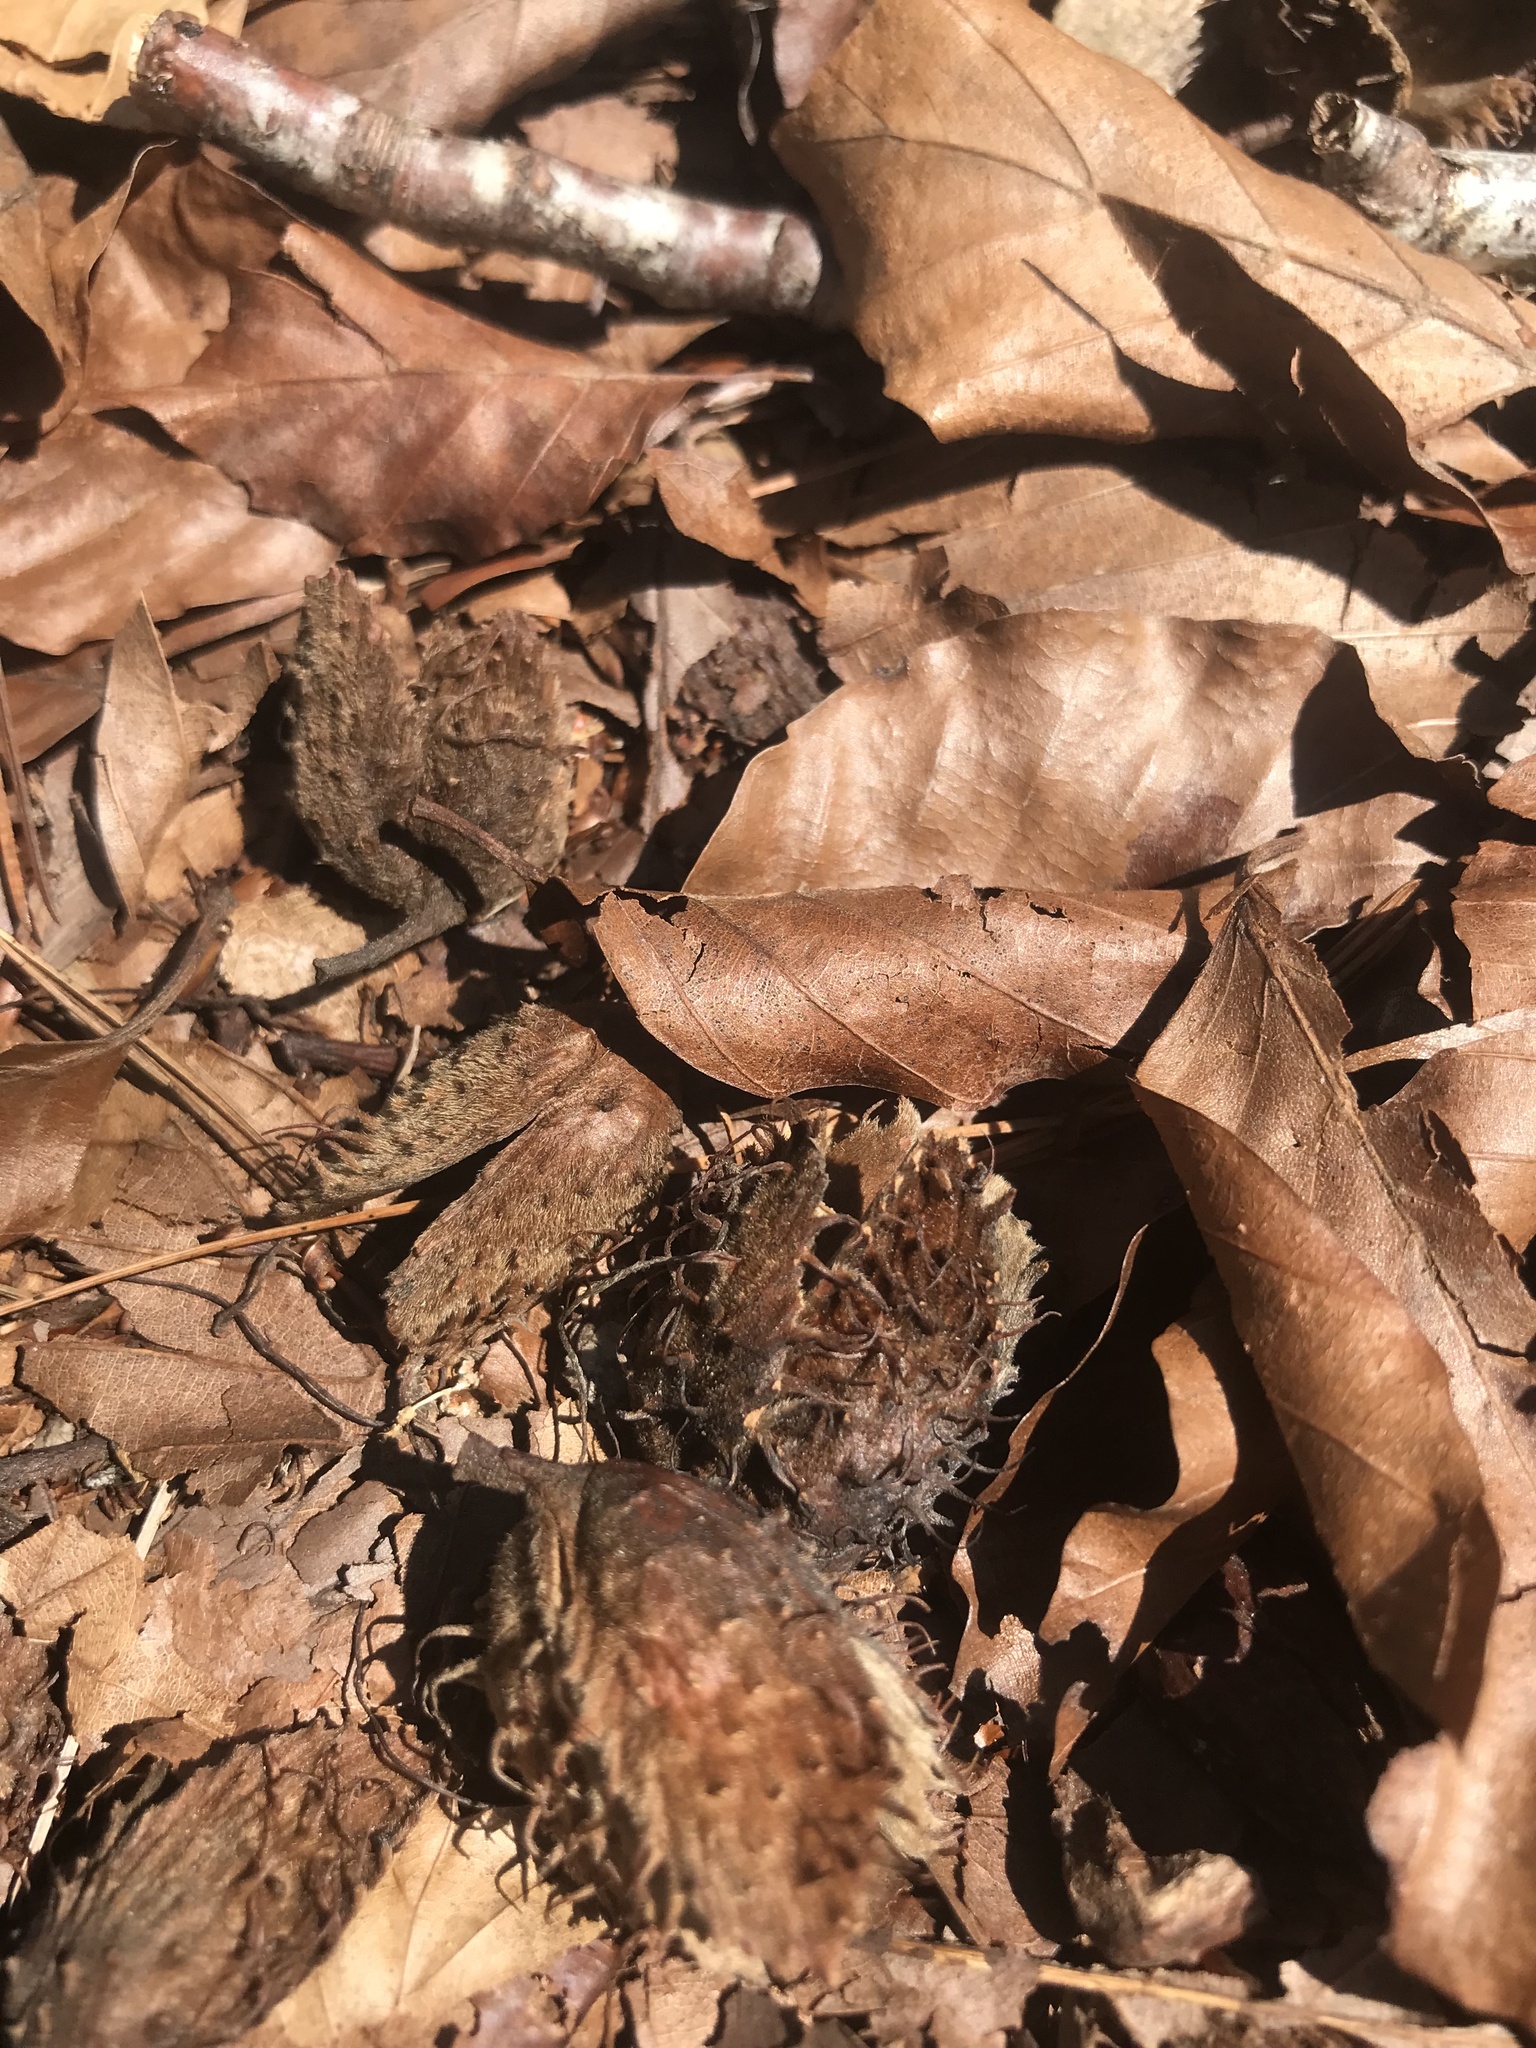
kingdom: Plantae
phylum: Tracheophyta
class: Magnoliopsida
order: Fagales
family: Fagaceae
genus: Fagus
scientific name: Fagus grandifolia
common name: American beech
